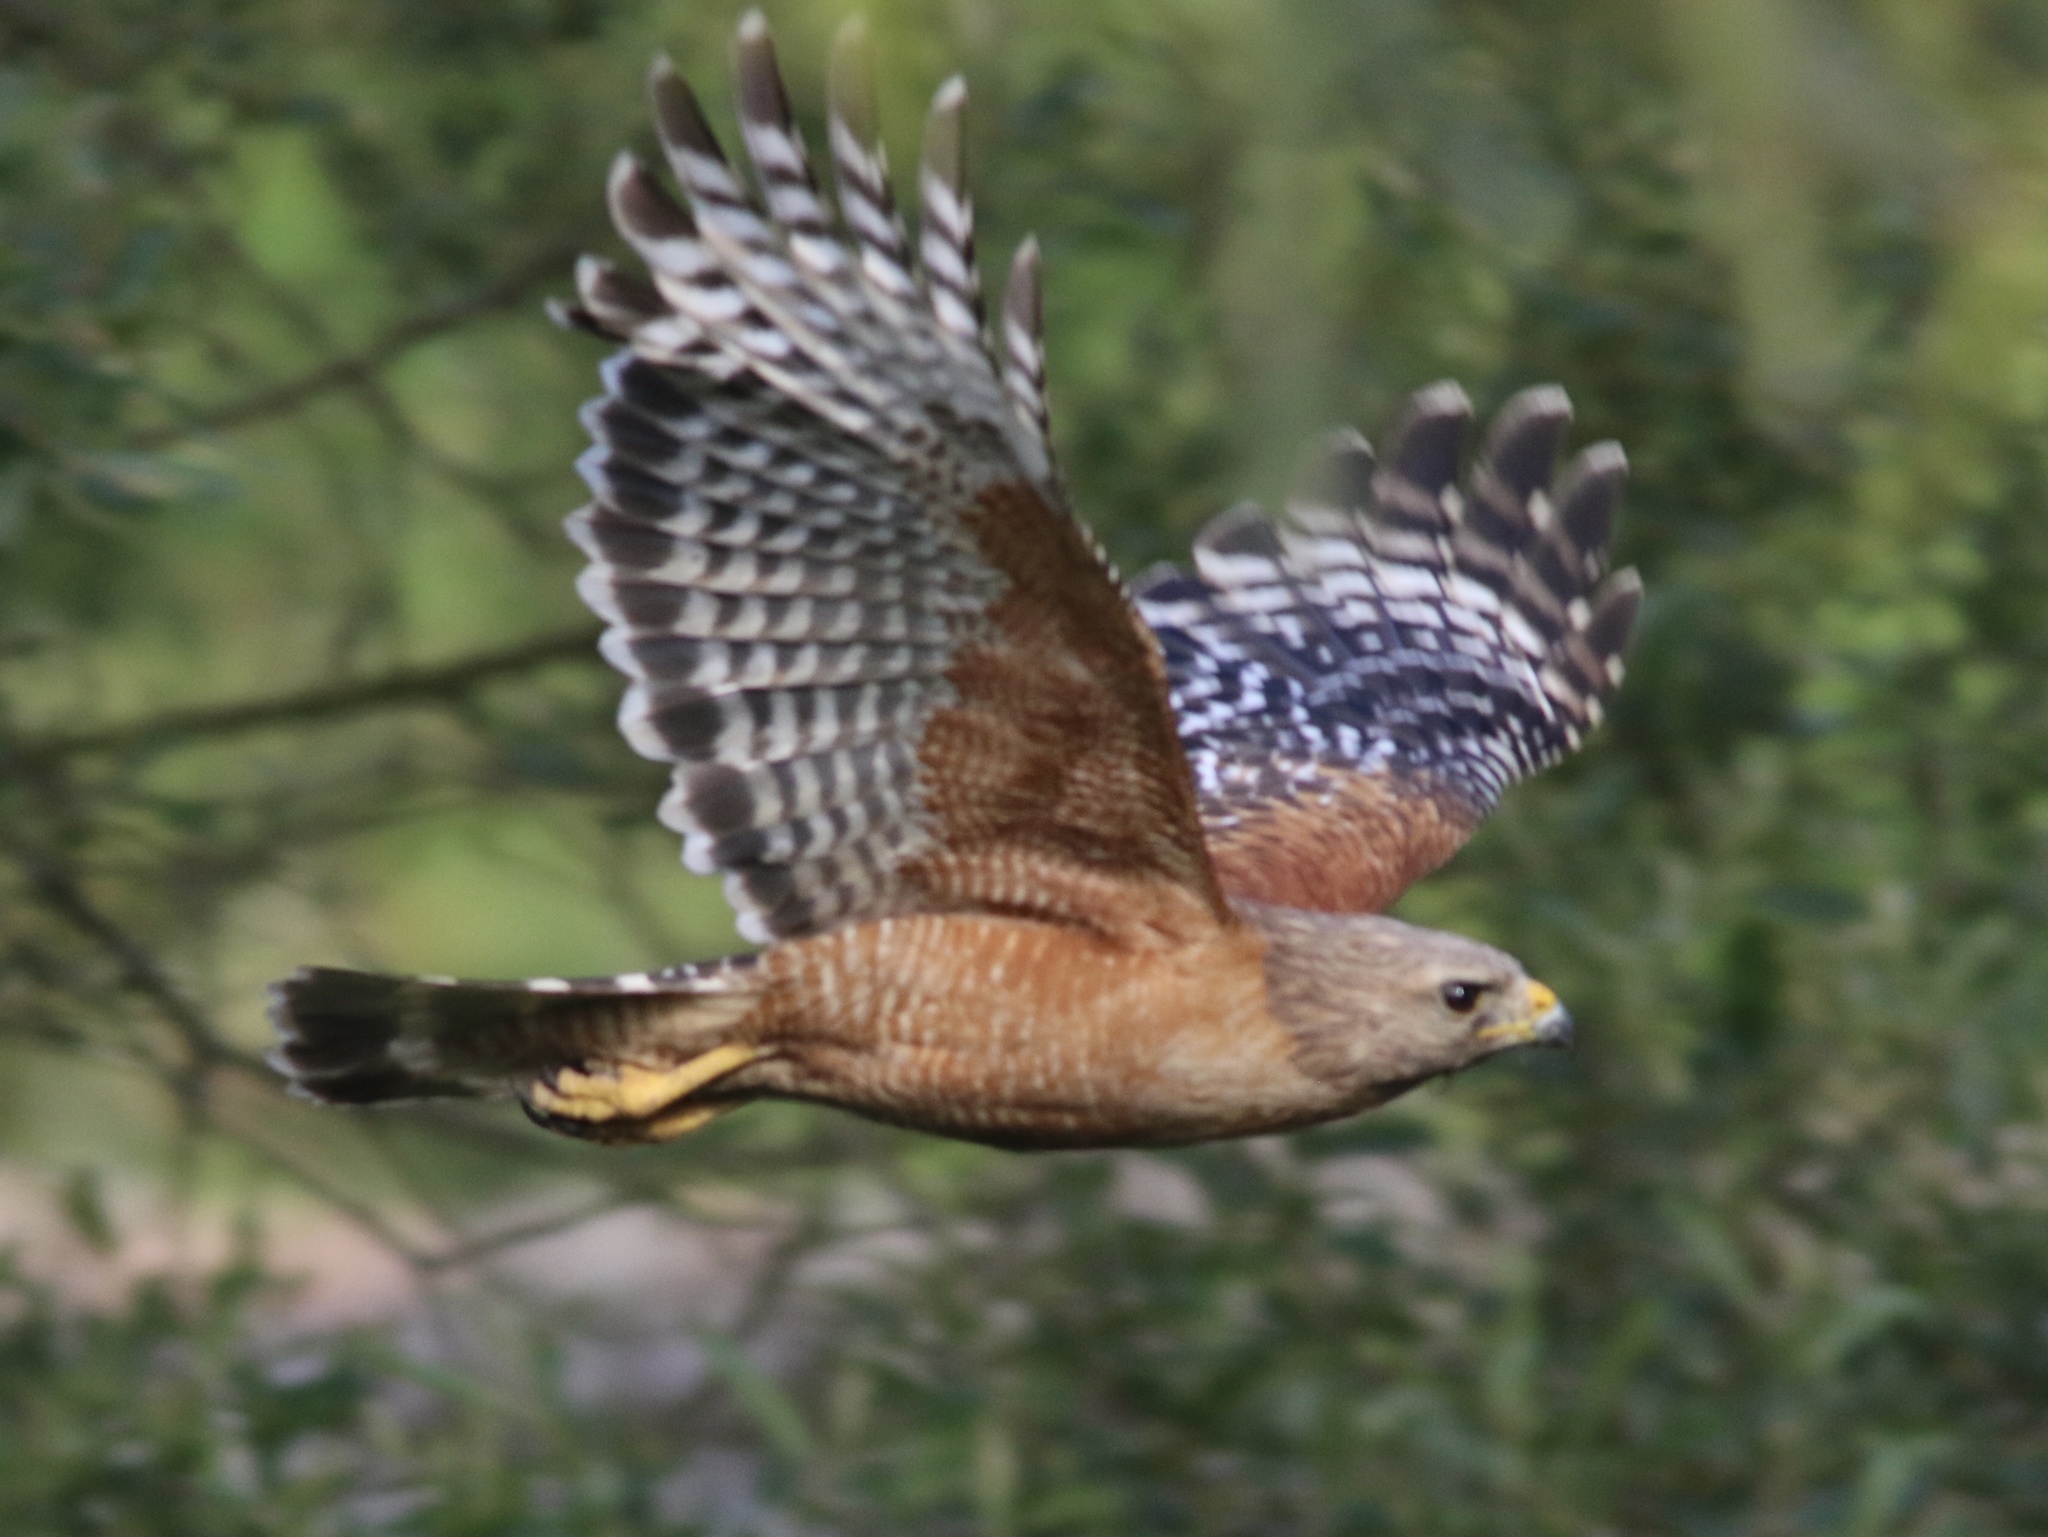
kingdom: Animalia
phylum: Chordata
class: Aves
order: Accipitriformes
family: Accipitridae
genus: Buteo
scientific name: Buteo lineatus
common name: Red-shouldered hawk
